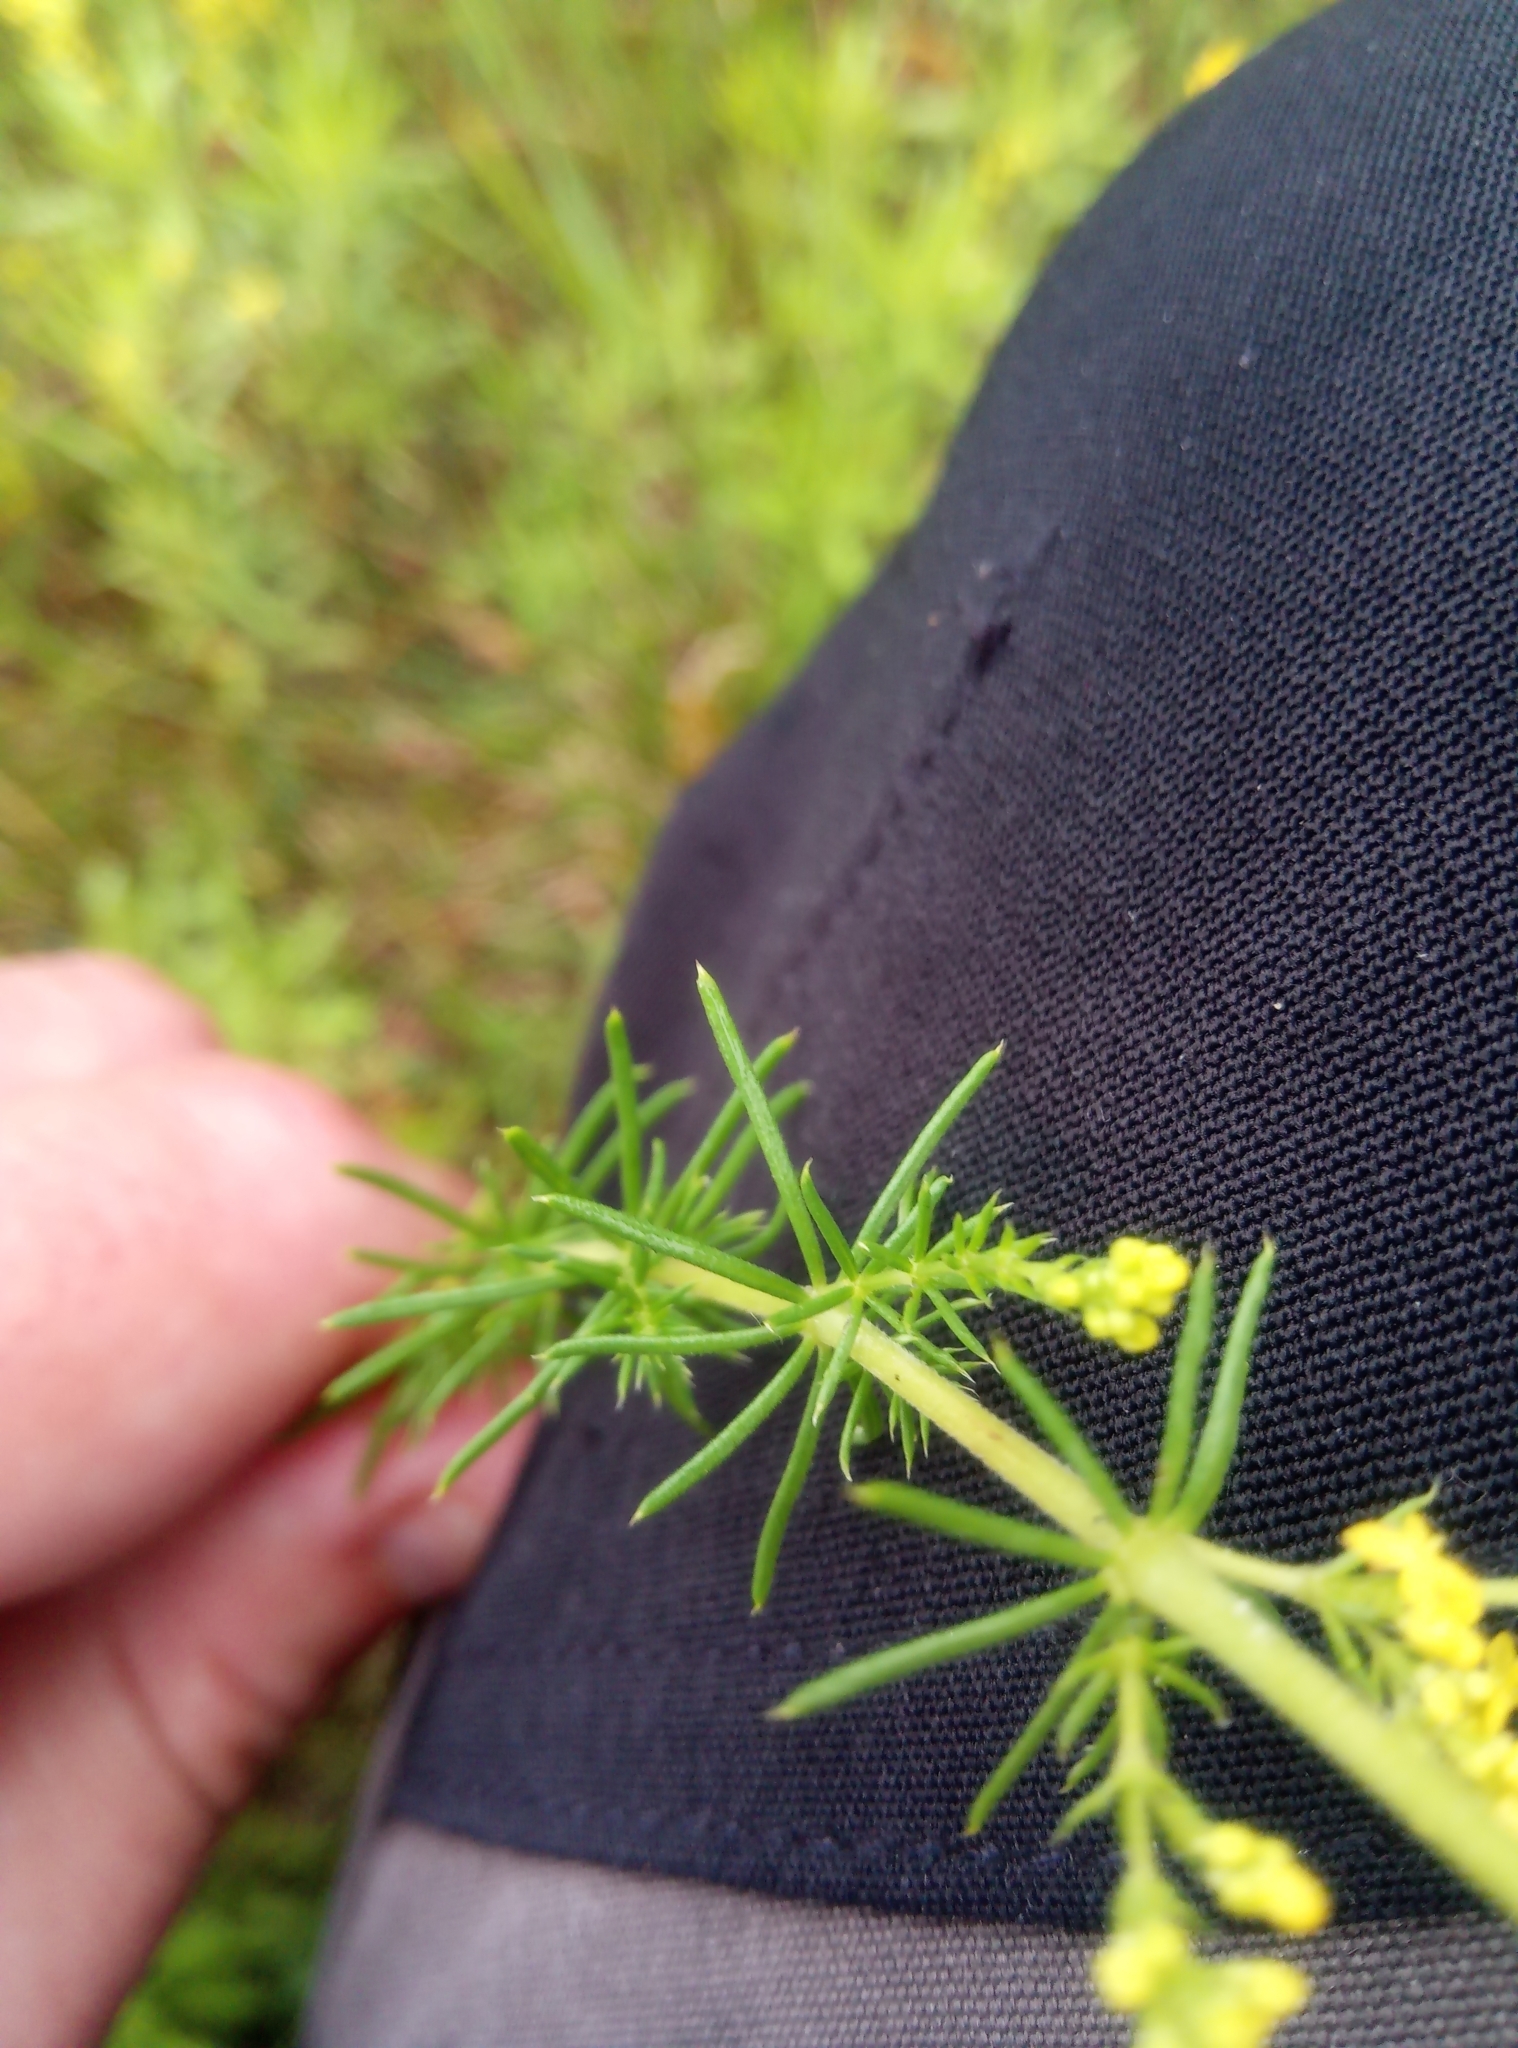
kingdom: Plantae
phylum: Tracheophyta
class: Magnoliopsida
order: Gentianales
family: Rubiaceae
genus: Galium
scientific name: Galium verum
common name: Lady's bedstraw
